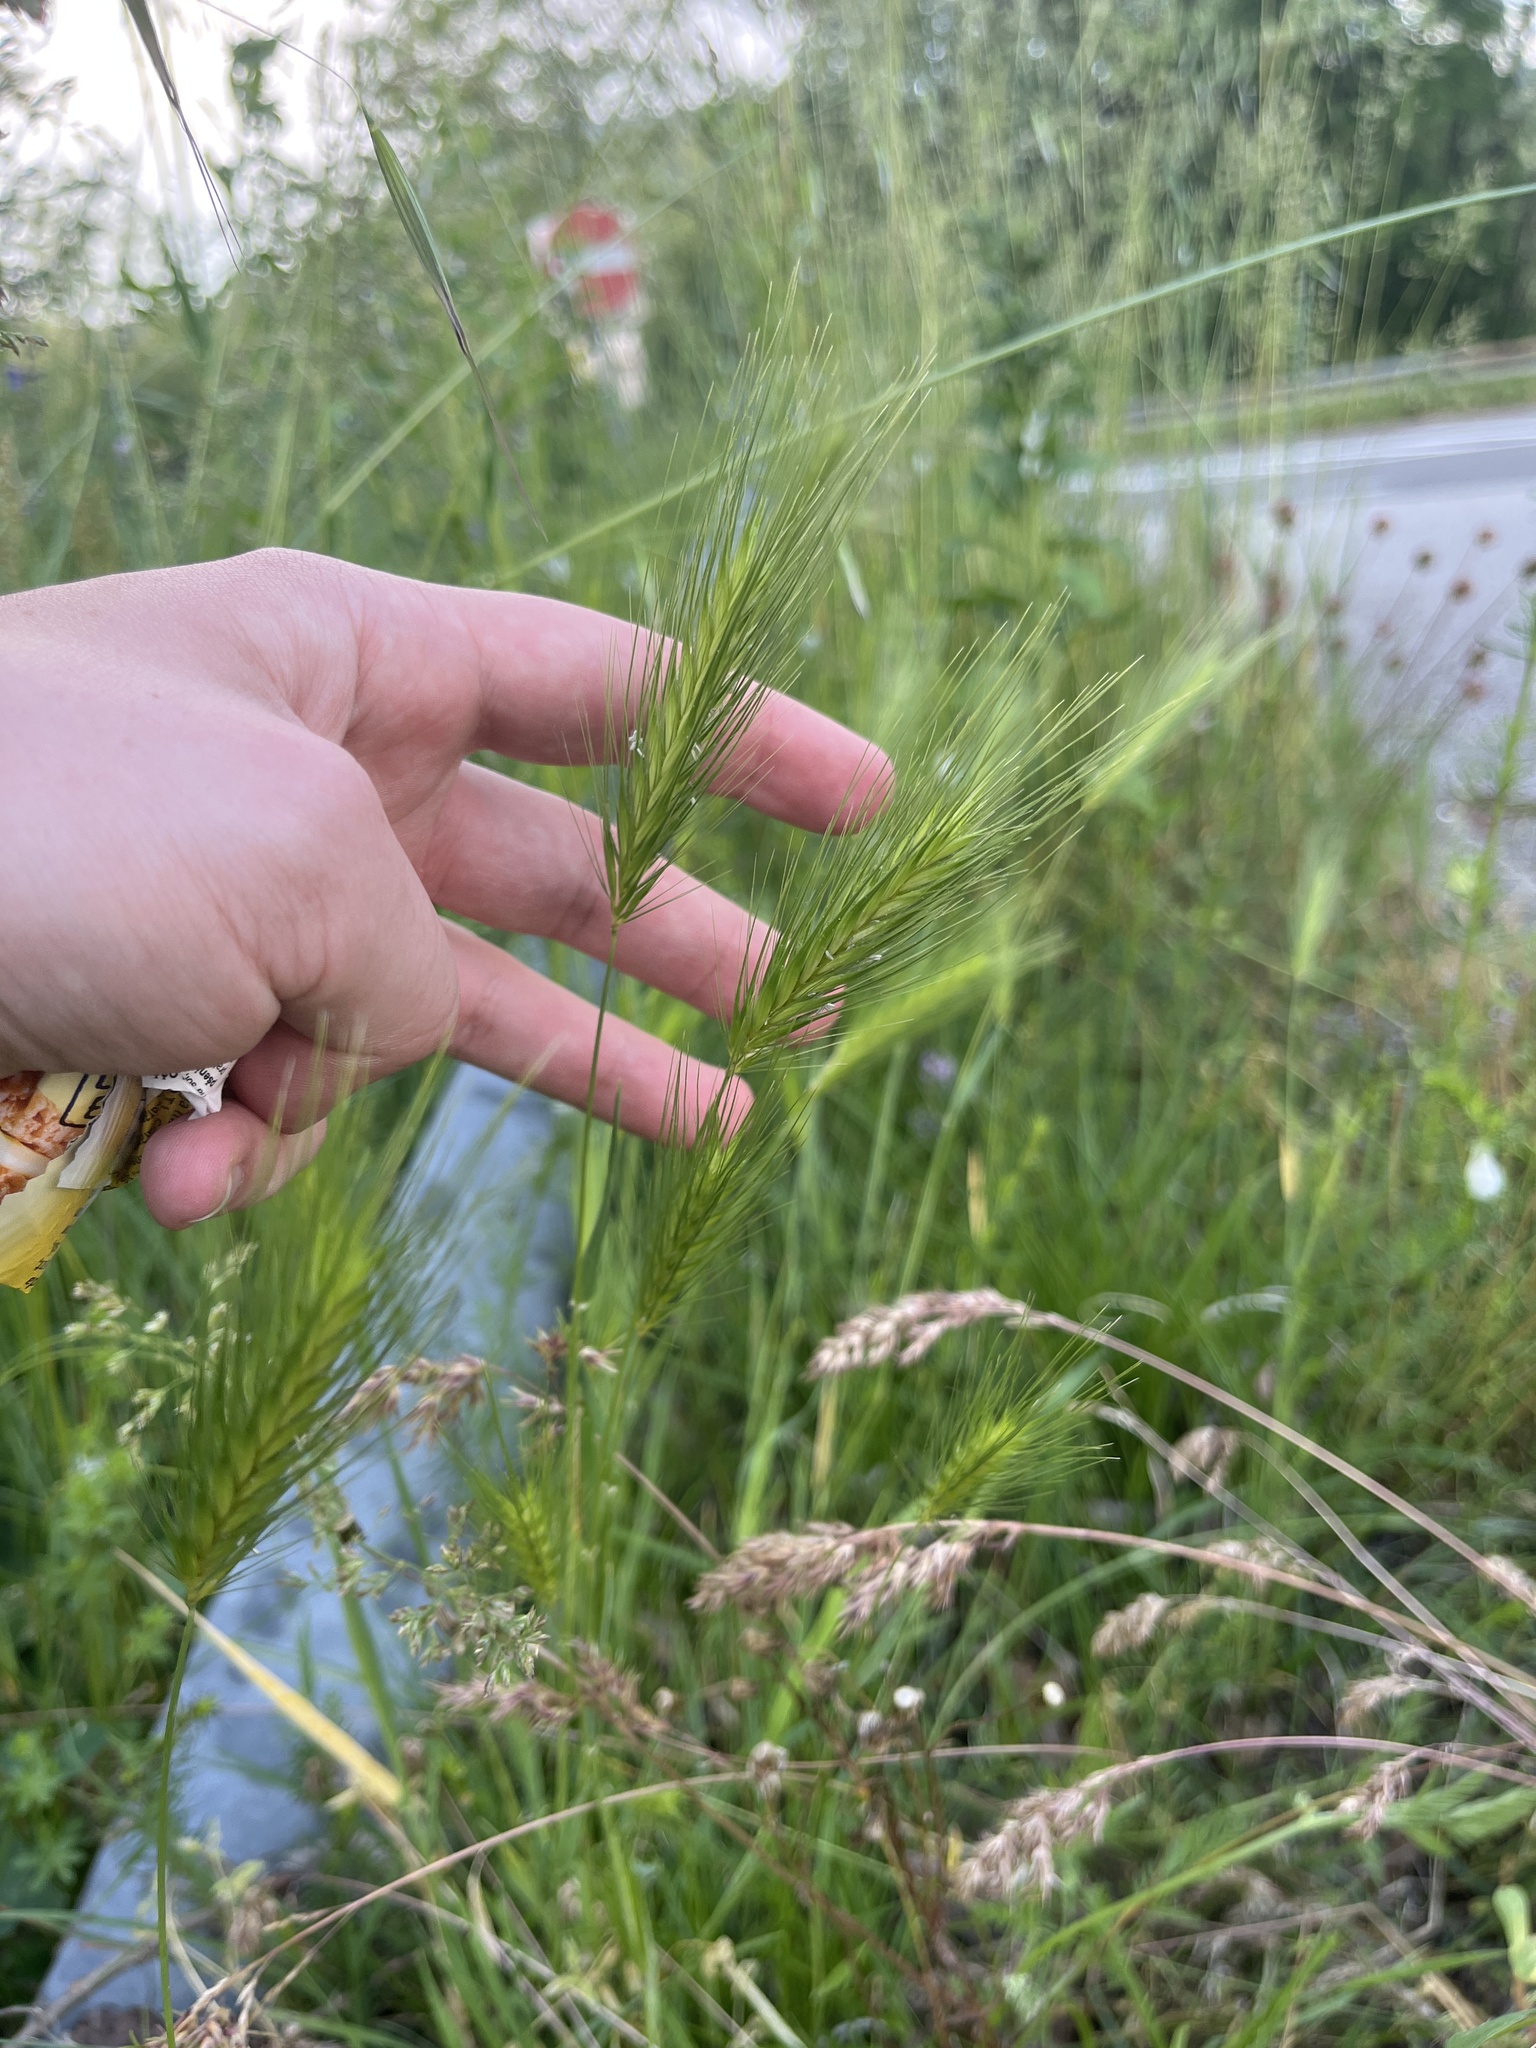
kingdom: Plantae
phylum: Tracheophyta
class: Liliopsida
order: Poales
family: Poaceae
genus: Hordeum
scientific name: Hordeum murinum
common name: Wall barley
